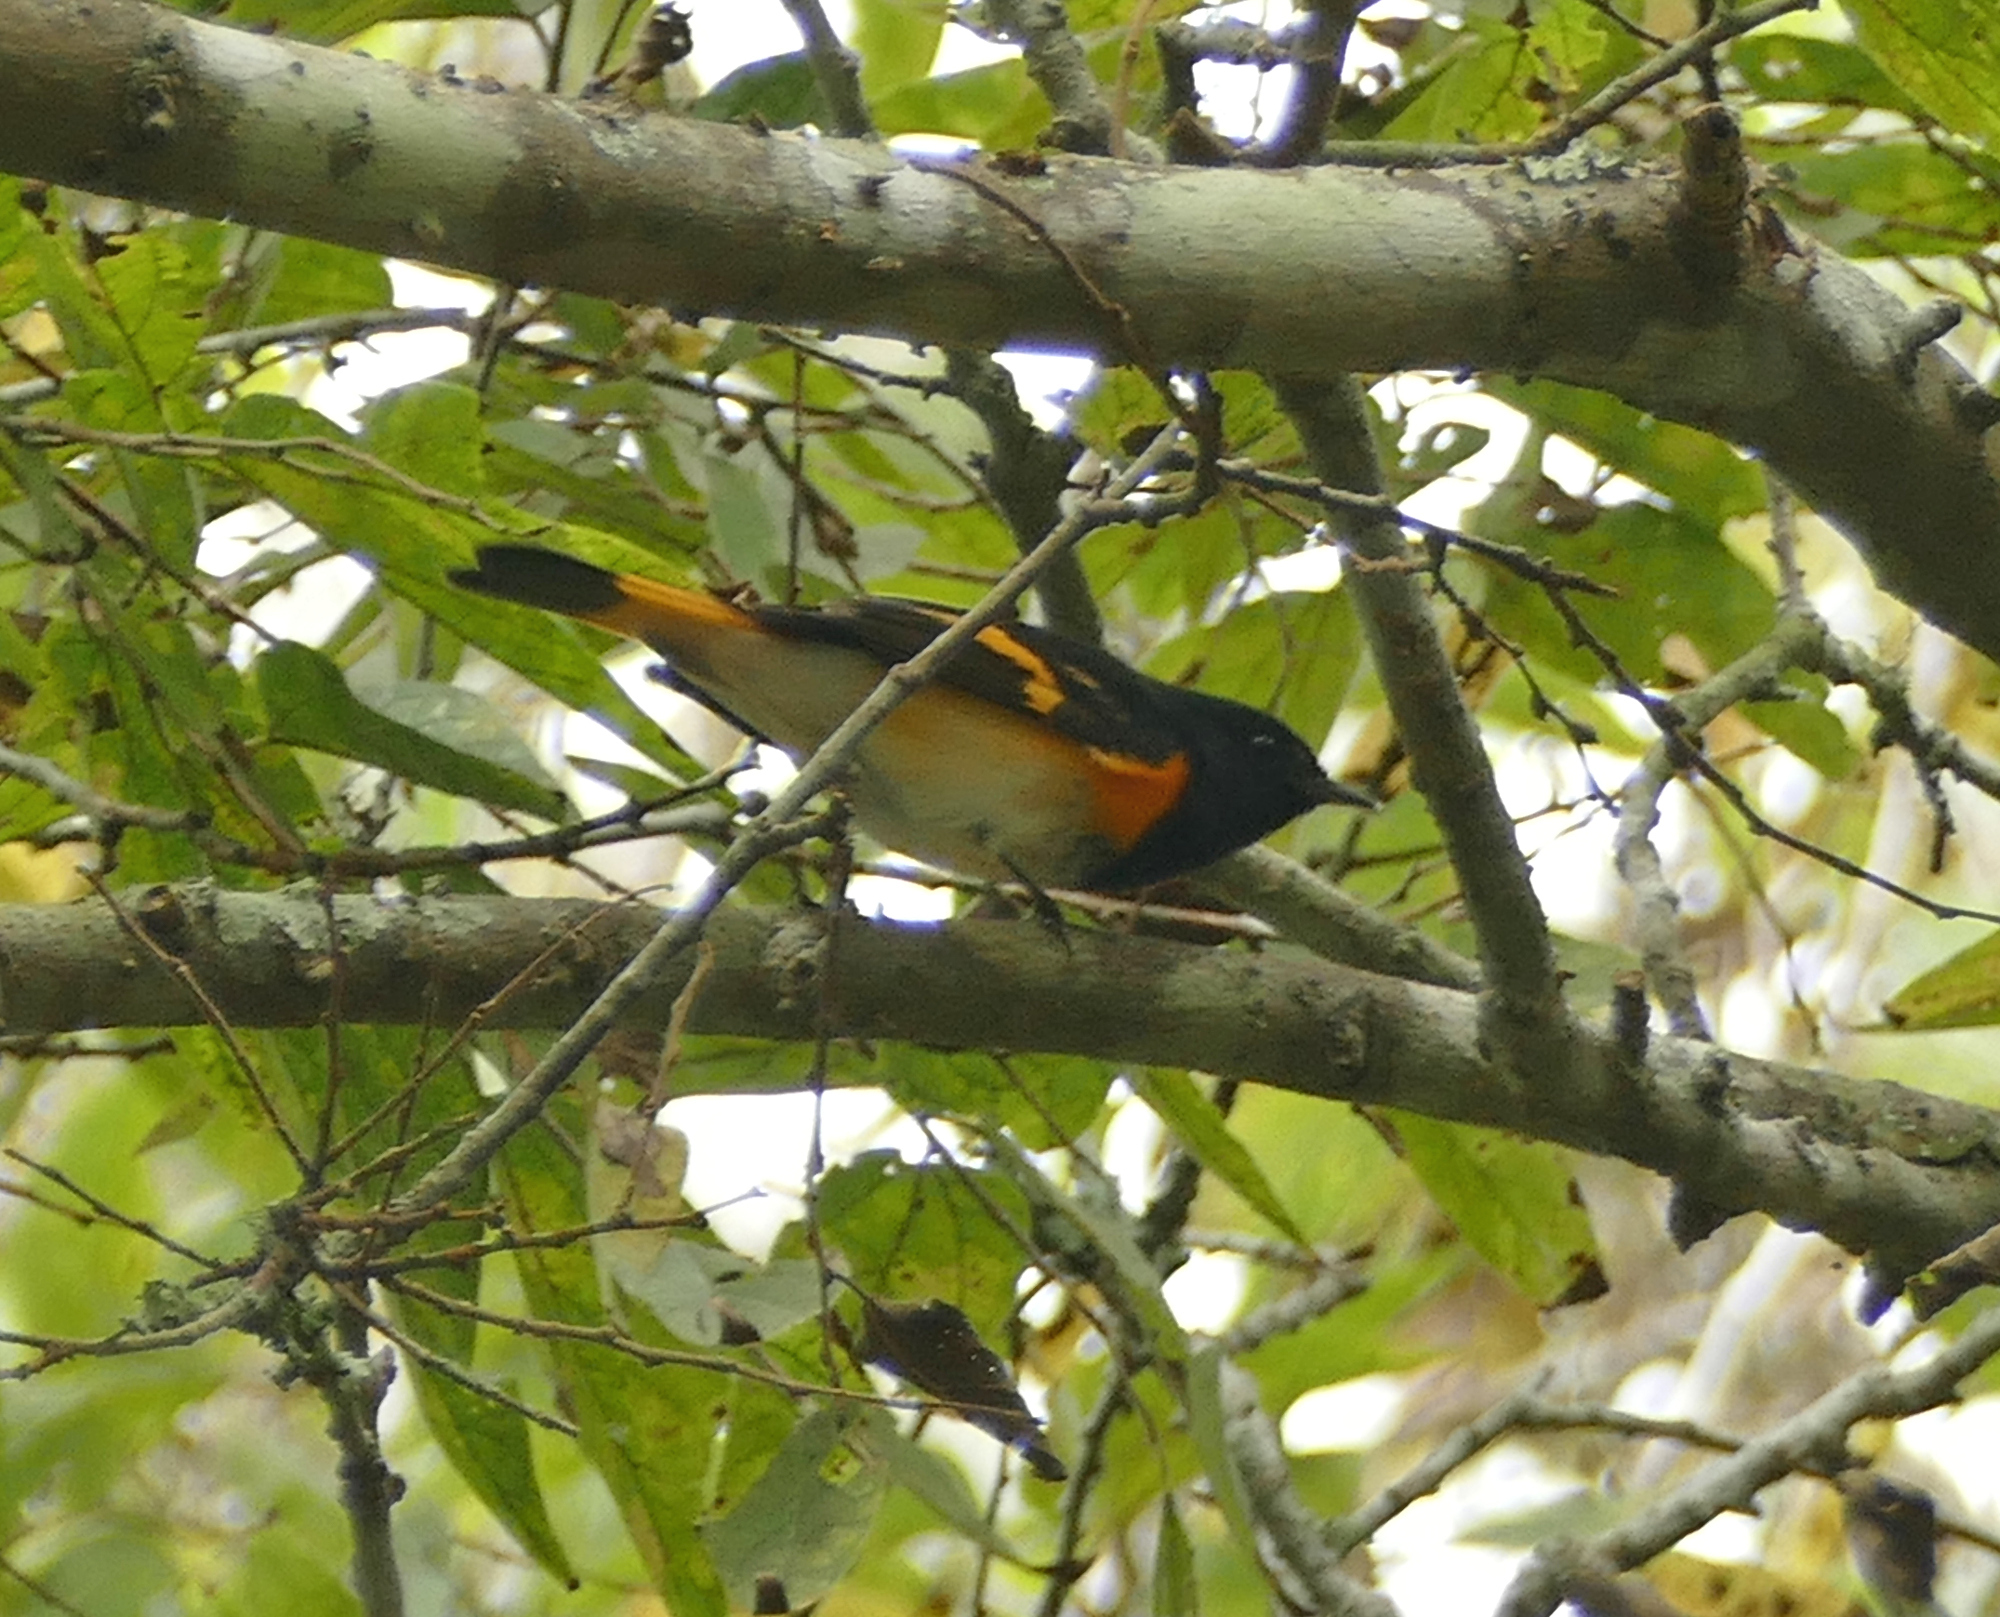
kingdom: Animalia
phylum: Chordata
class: Aves
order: Passeriformes
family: Parulidae
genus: Setophaga
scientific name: Setophaga ruticilla
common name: American redstart
